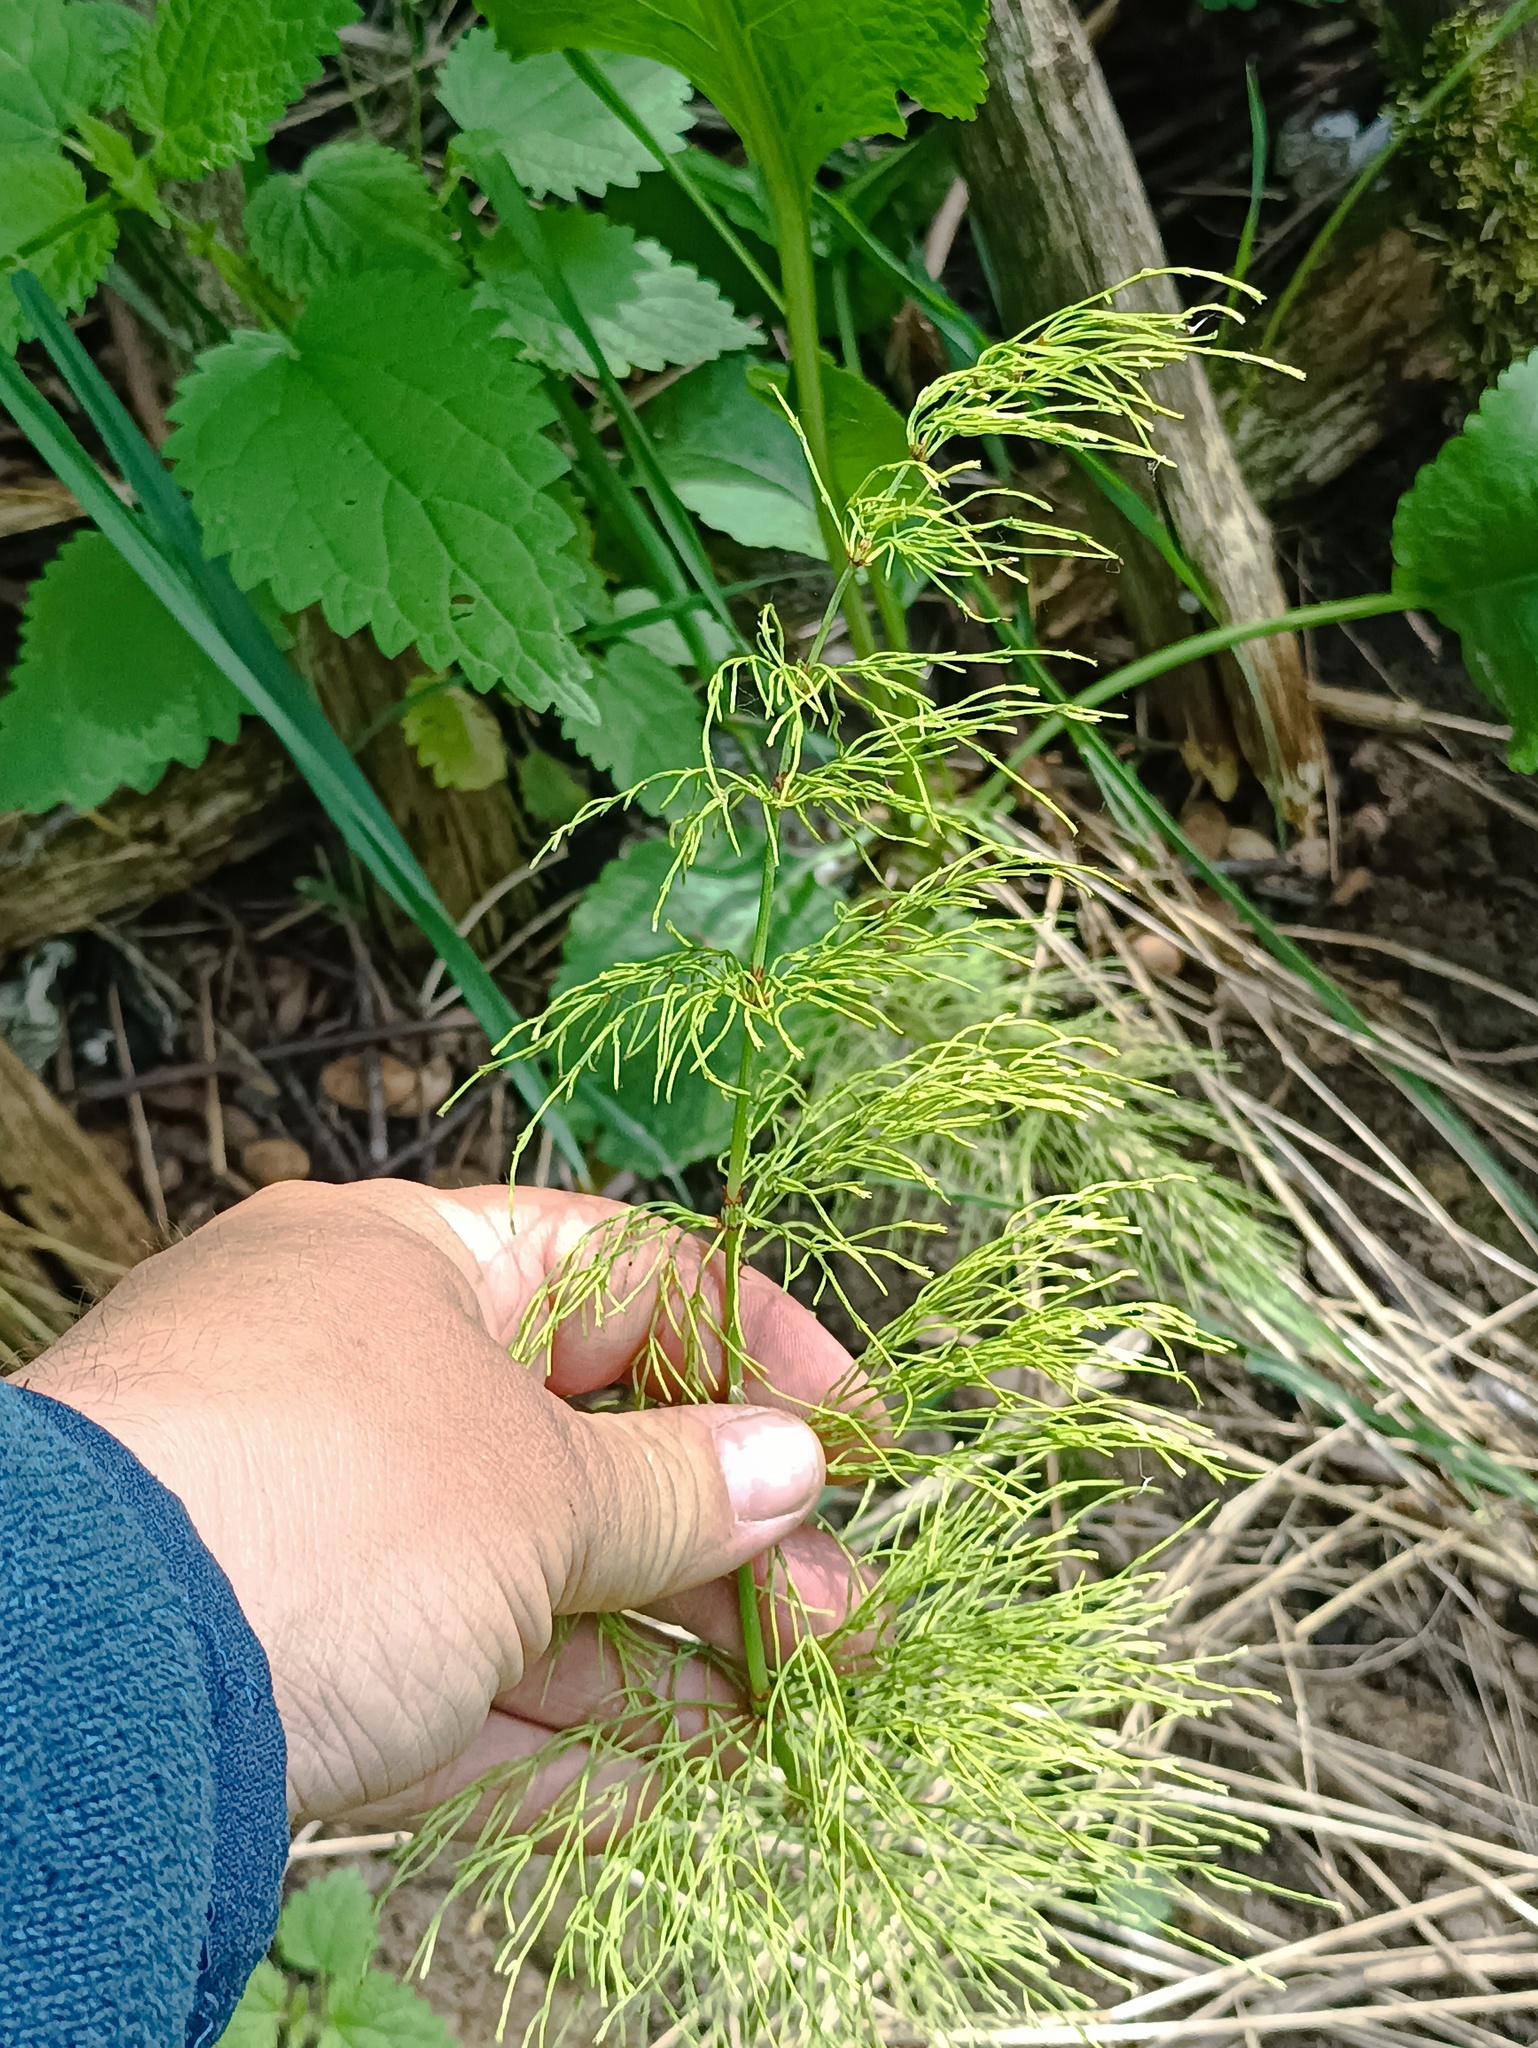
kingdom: Plantae
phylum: Tracheophyta
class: Polypodiopsida
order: Equisetales
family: Equisetaceae
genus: Equisetum
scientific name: Equisetum sylvaticum
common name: Wood horsetail
